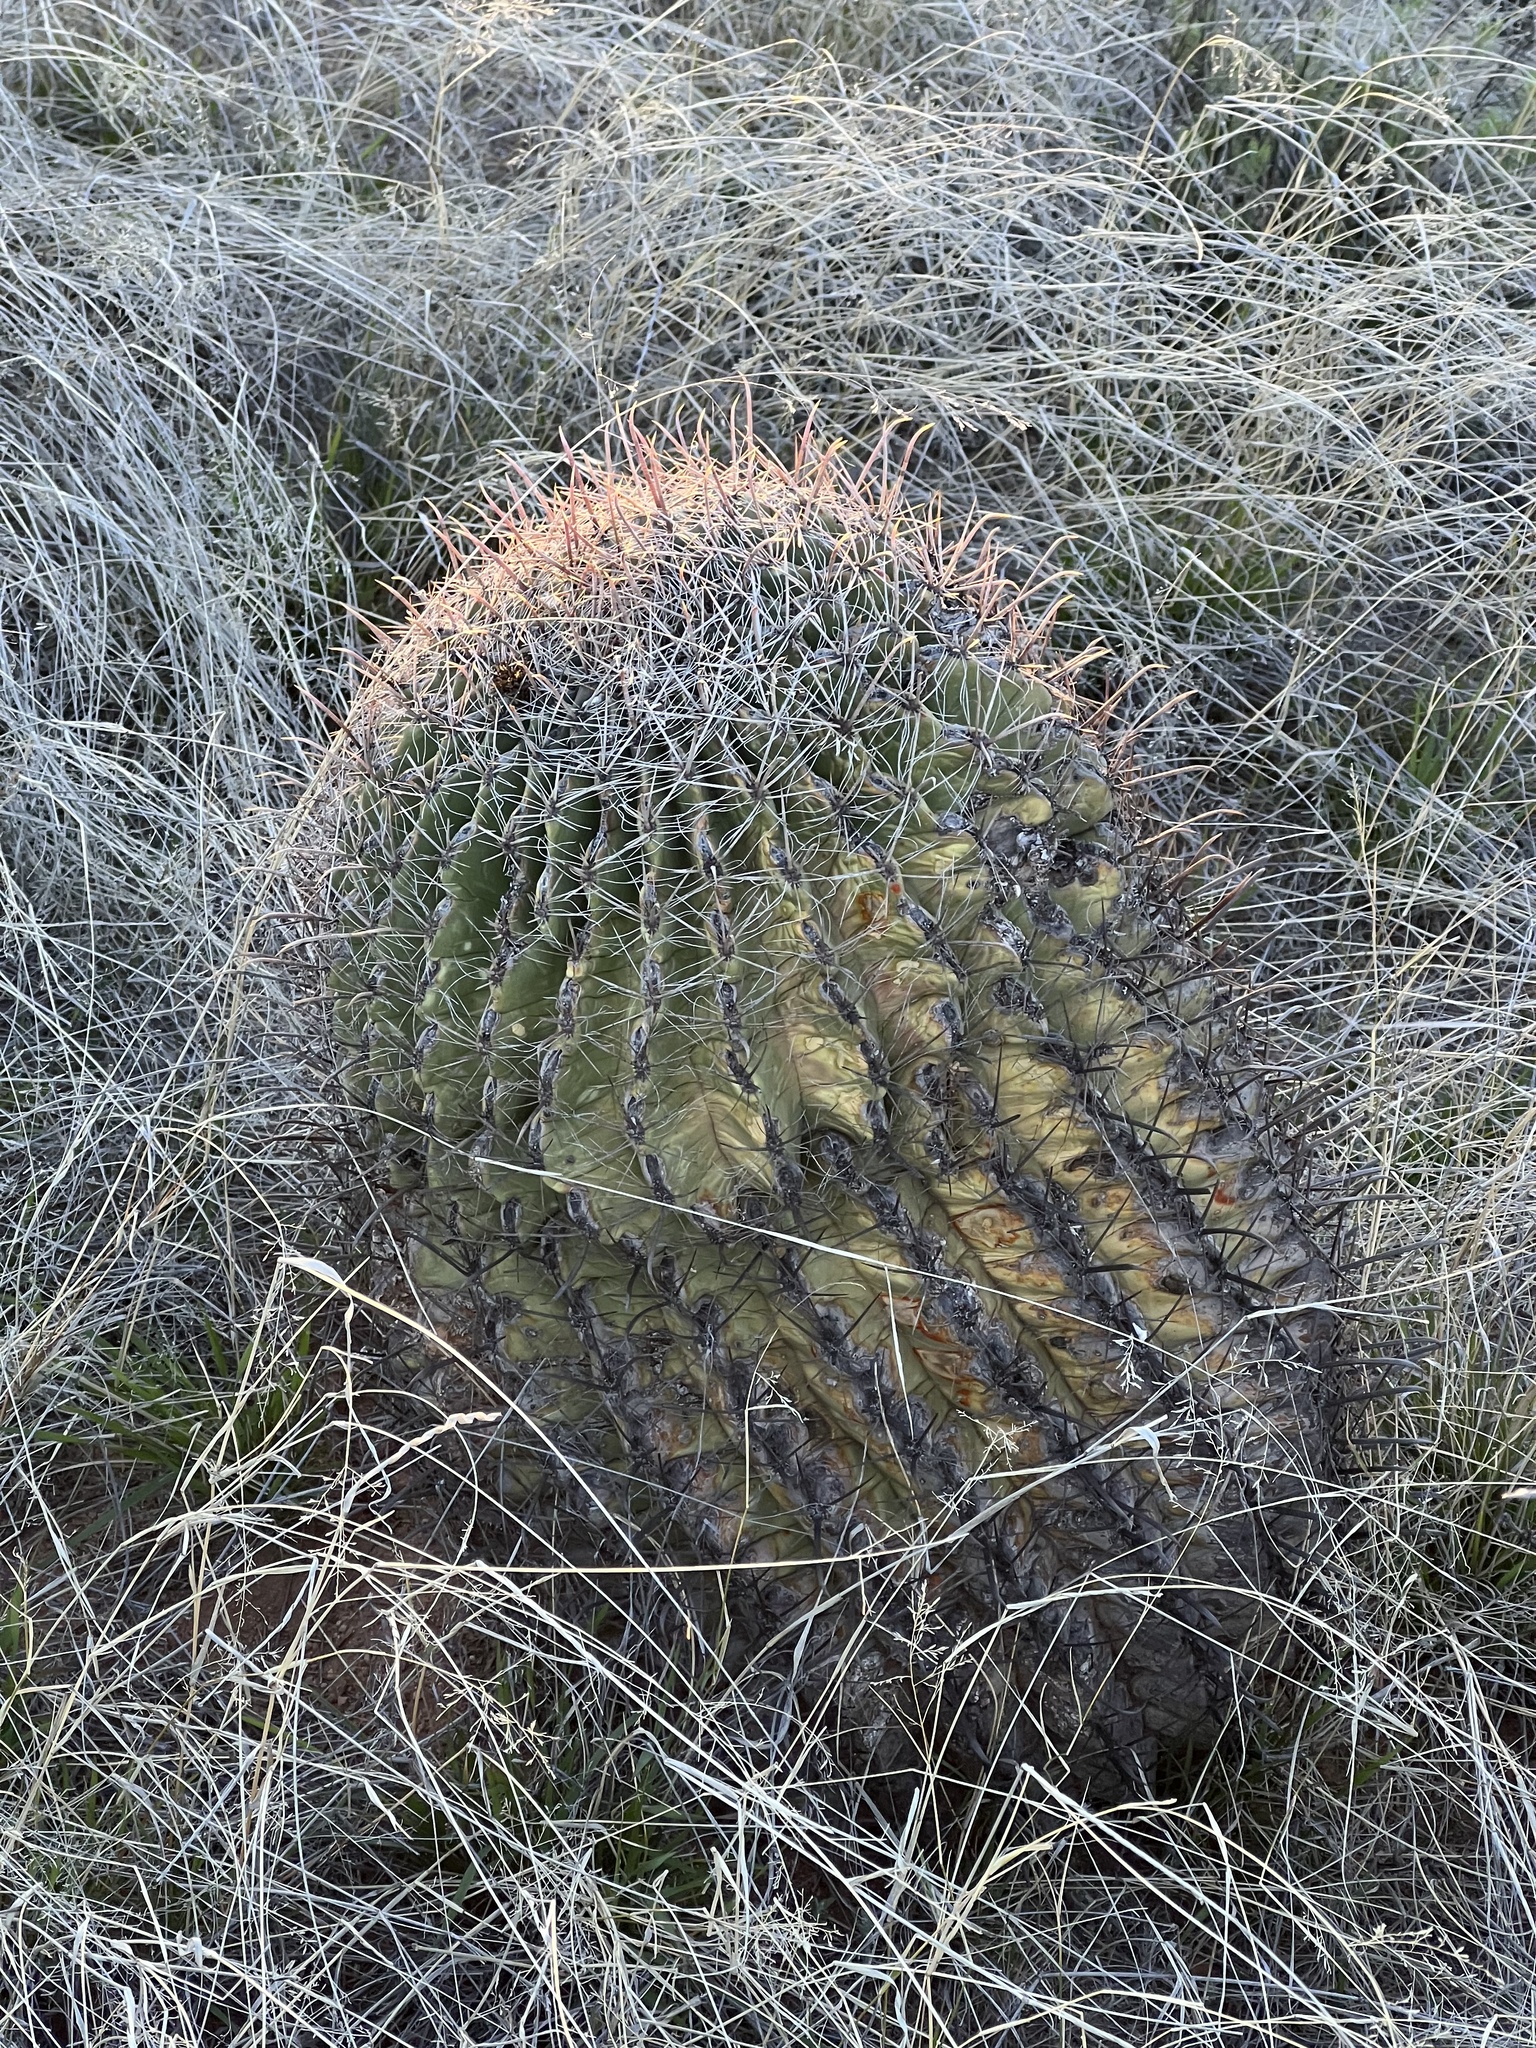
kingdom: Plantae
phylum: Tracheophyta
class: Magnoliopsida
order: Caryophyllales
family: Cactaceae
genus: Ferocactus
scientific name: Ferocactus wislizeni
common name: Candy barrel cactus
